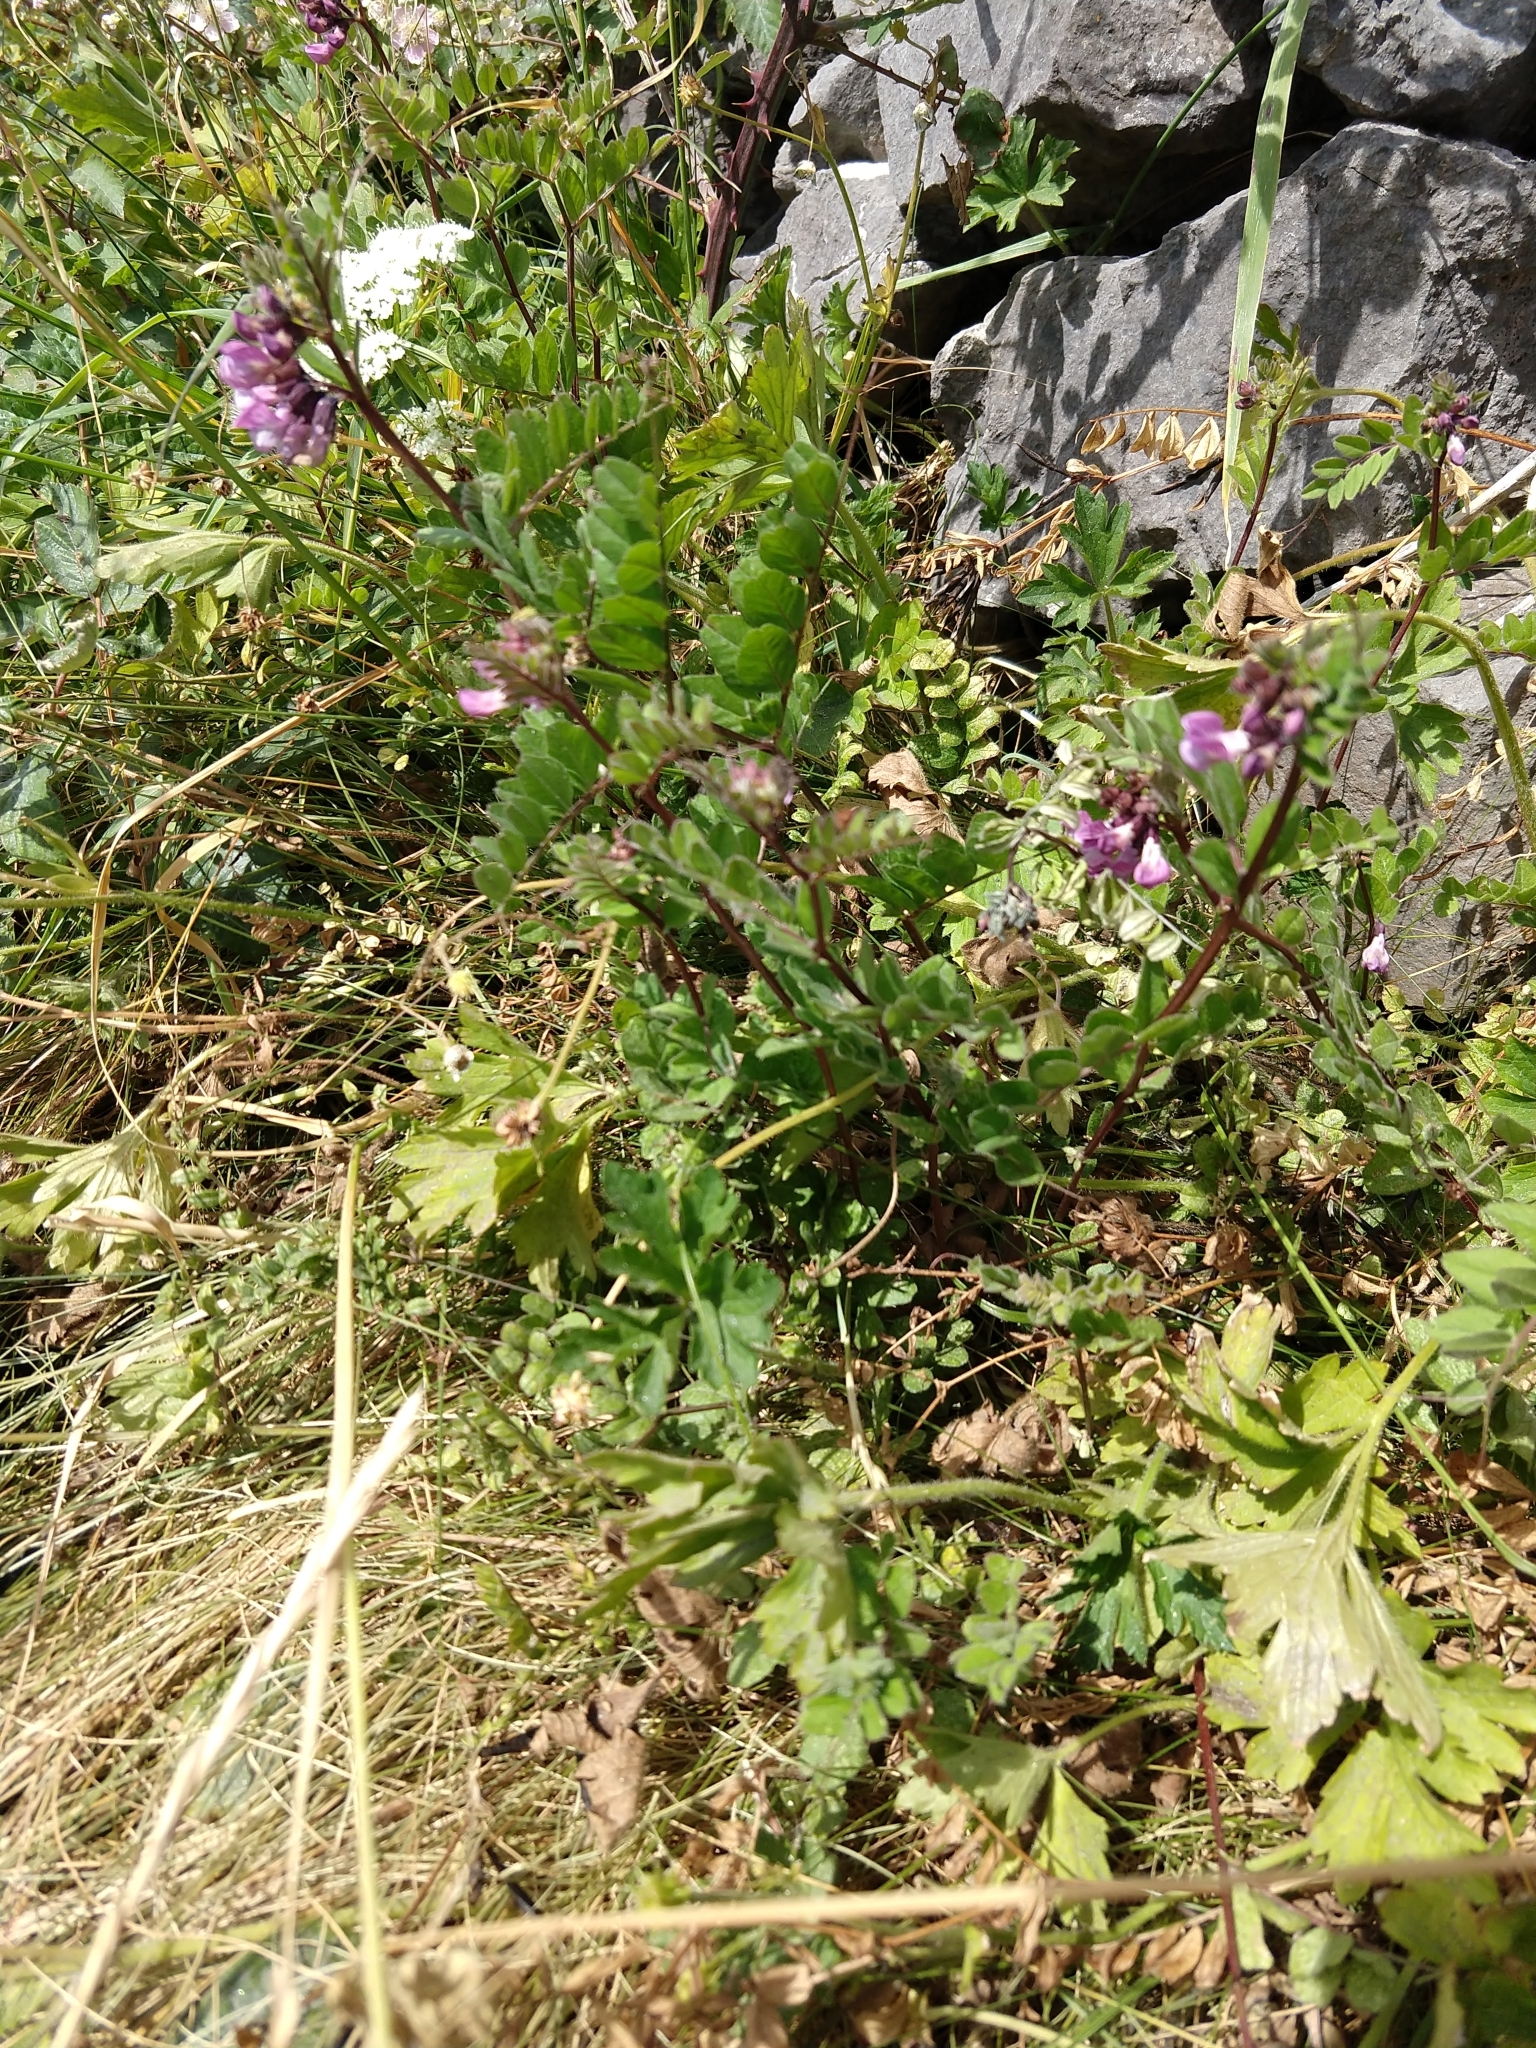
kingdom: Plantae
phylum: Tracheophyta
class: Magnoliopsida
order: Fabales
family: Fabaceae
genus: Vicia
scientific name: Vicia sepium
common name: Bush vetch
